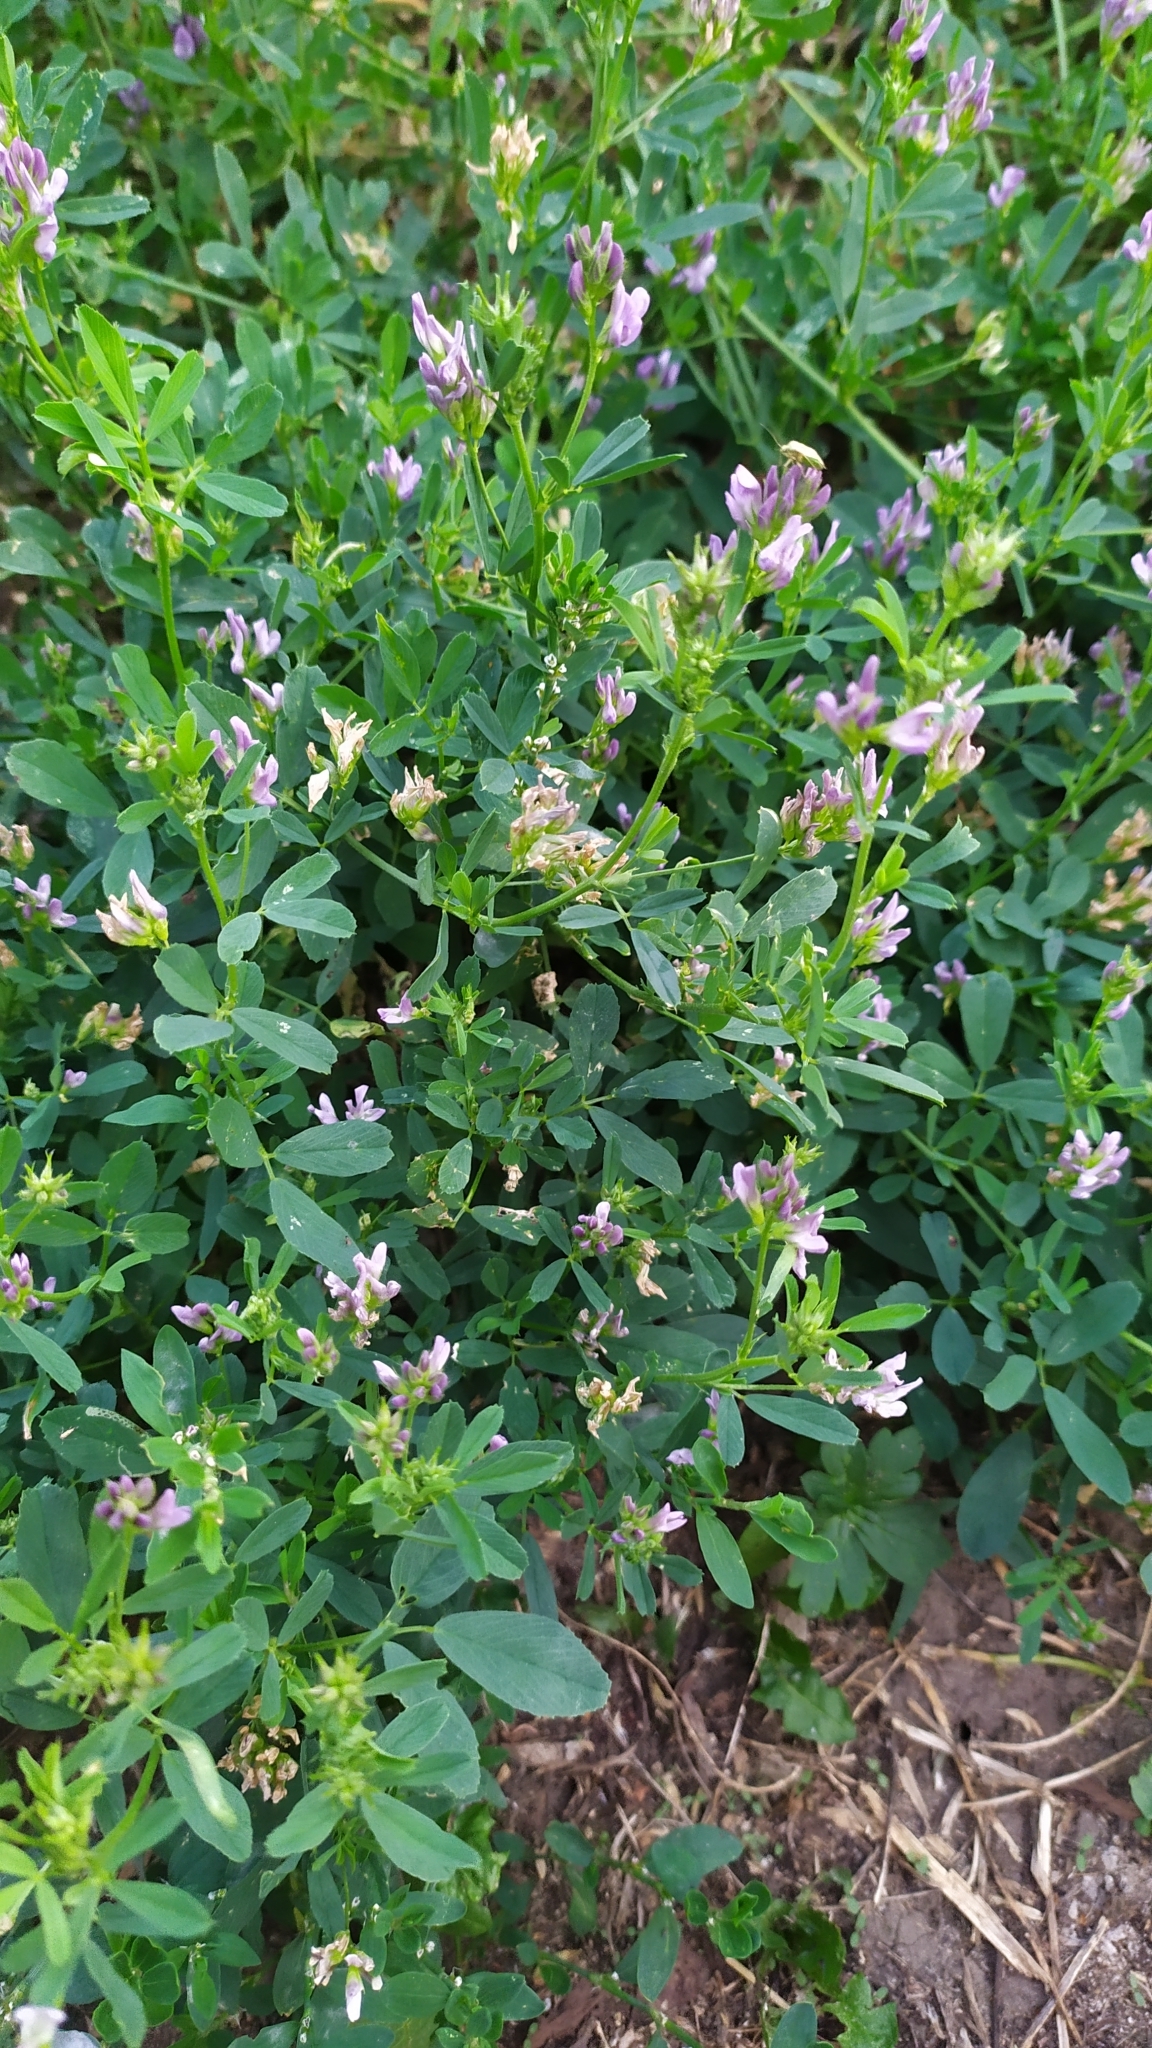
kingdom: Plantae
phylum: Tracheophyta
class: Magnoliopsida
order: Fabales
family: Fabaceae
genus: Medicago
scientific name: Medicago sativa
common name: Alfalfa
